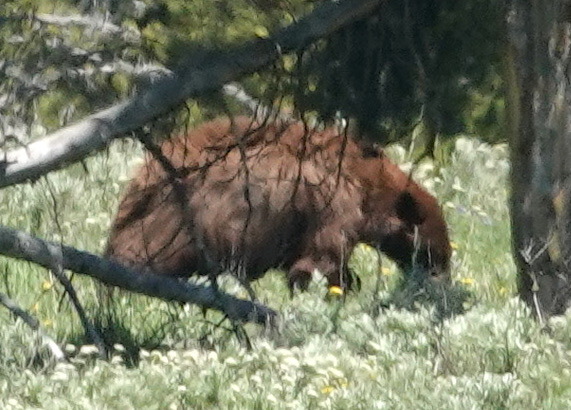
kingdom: Animalia
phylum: Chordata
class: Mammalia
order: Carnivora
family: Ursidae
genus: Ursus
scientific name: Ursus americanus
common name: American black bear
